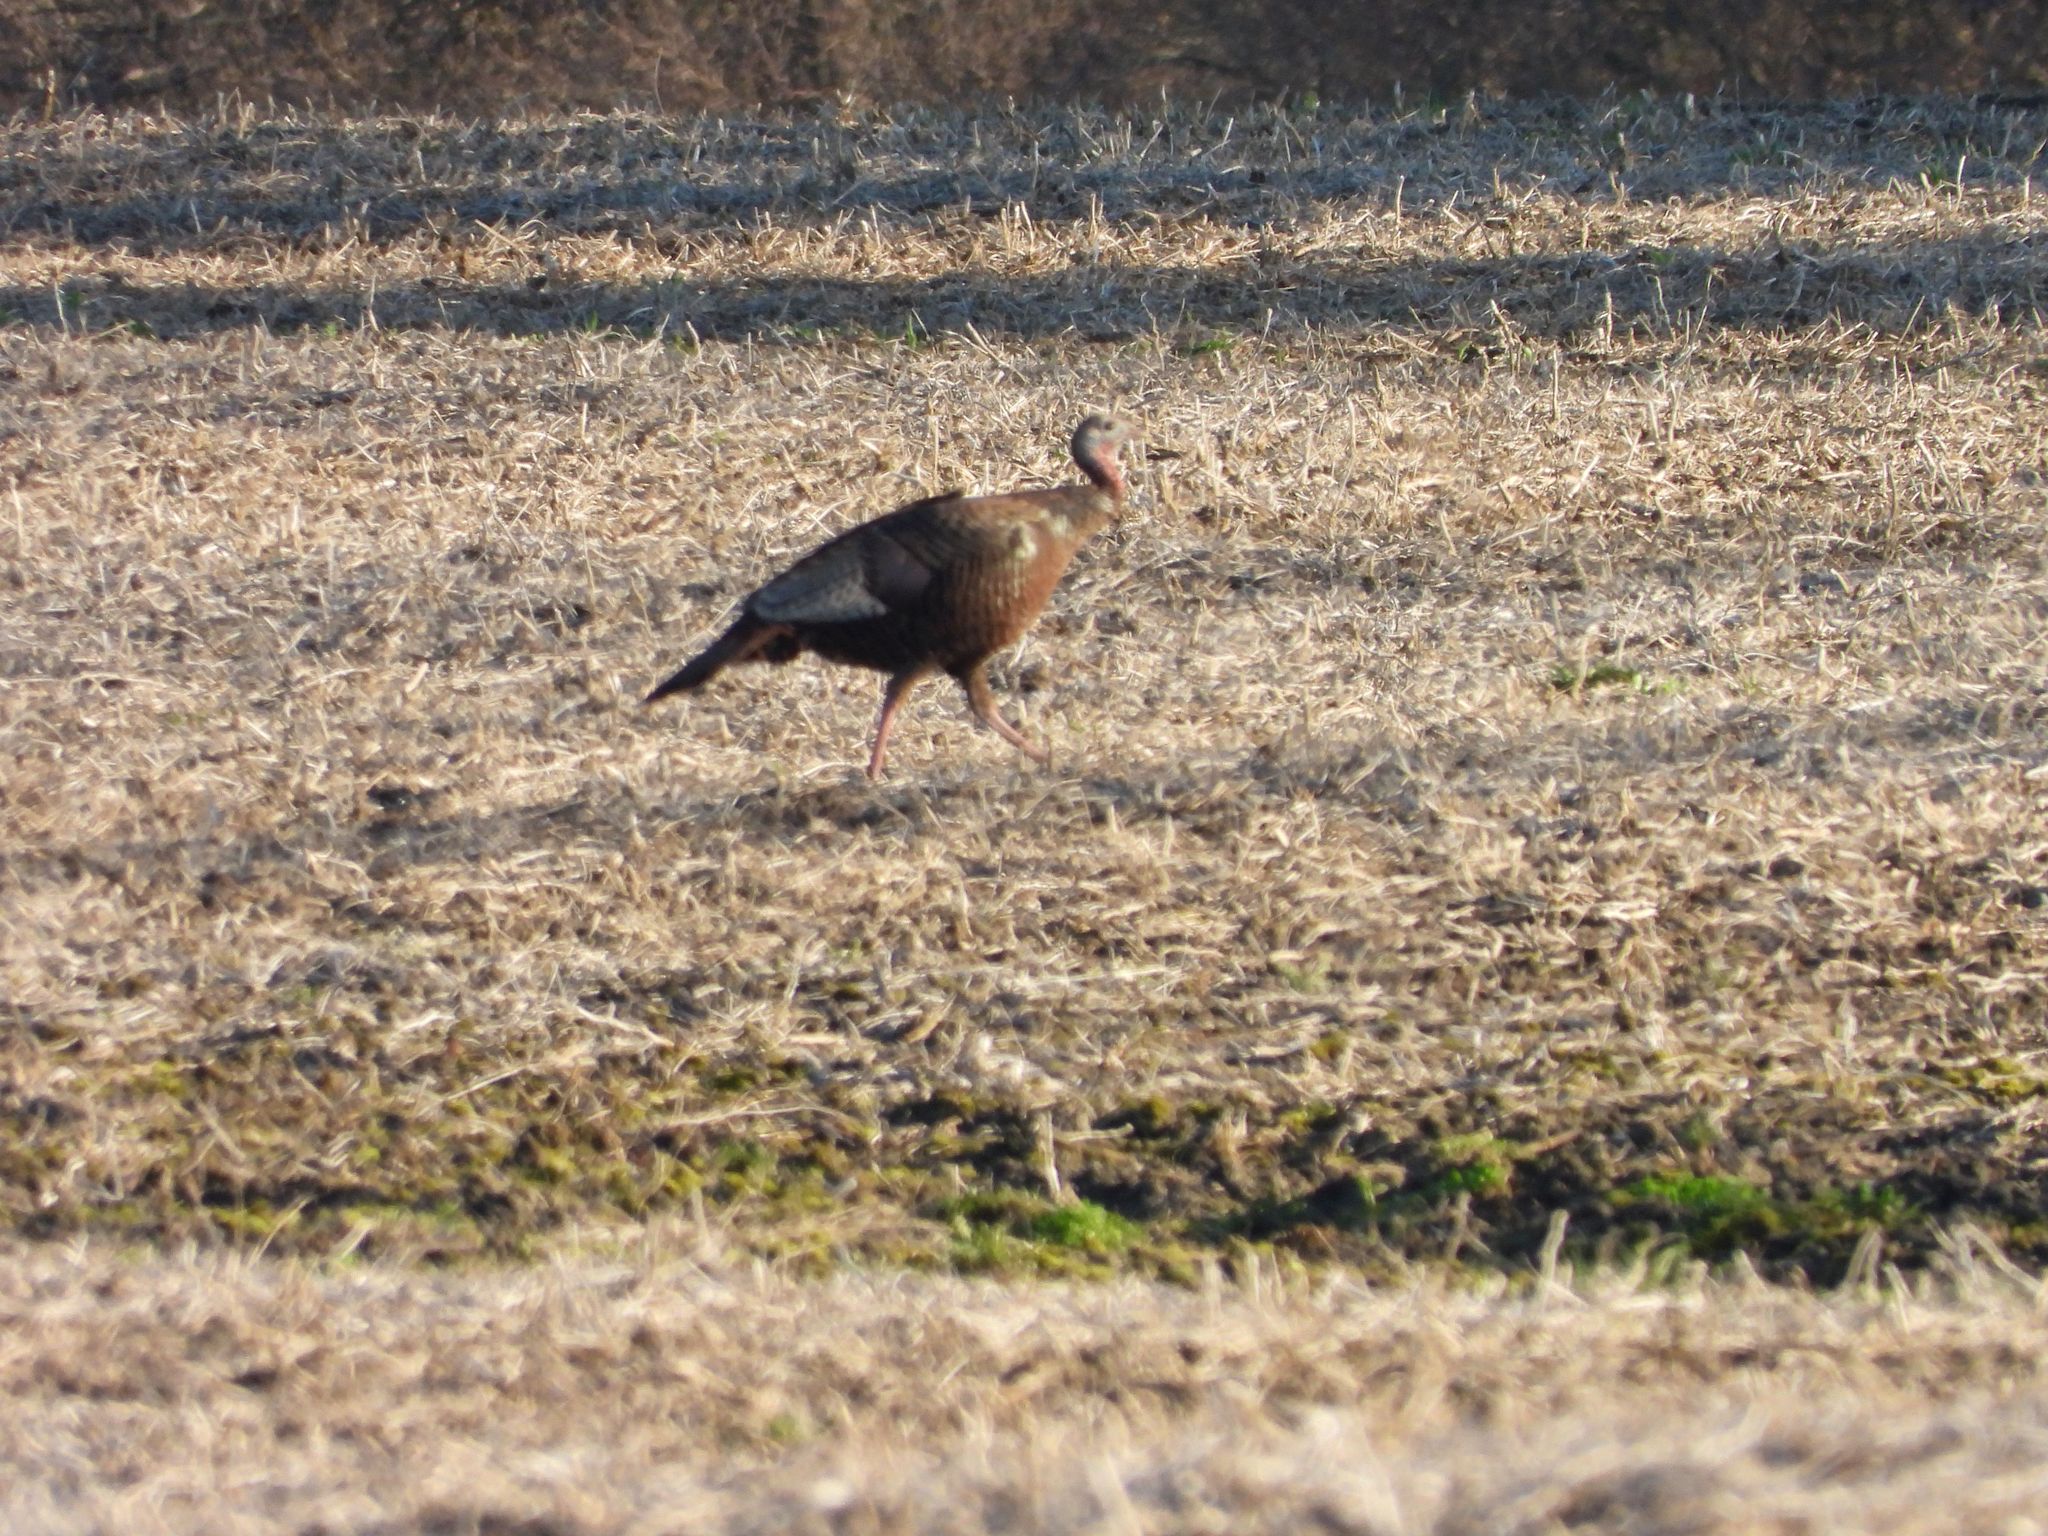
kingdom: Animalia
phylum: Chordata
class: Aves
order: Galliformes
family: Phasianidae
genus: Meleagris
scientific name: Meleagris gallopavo
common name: Wild turkey
